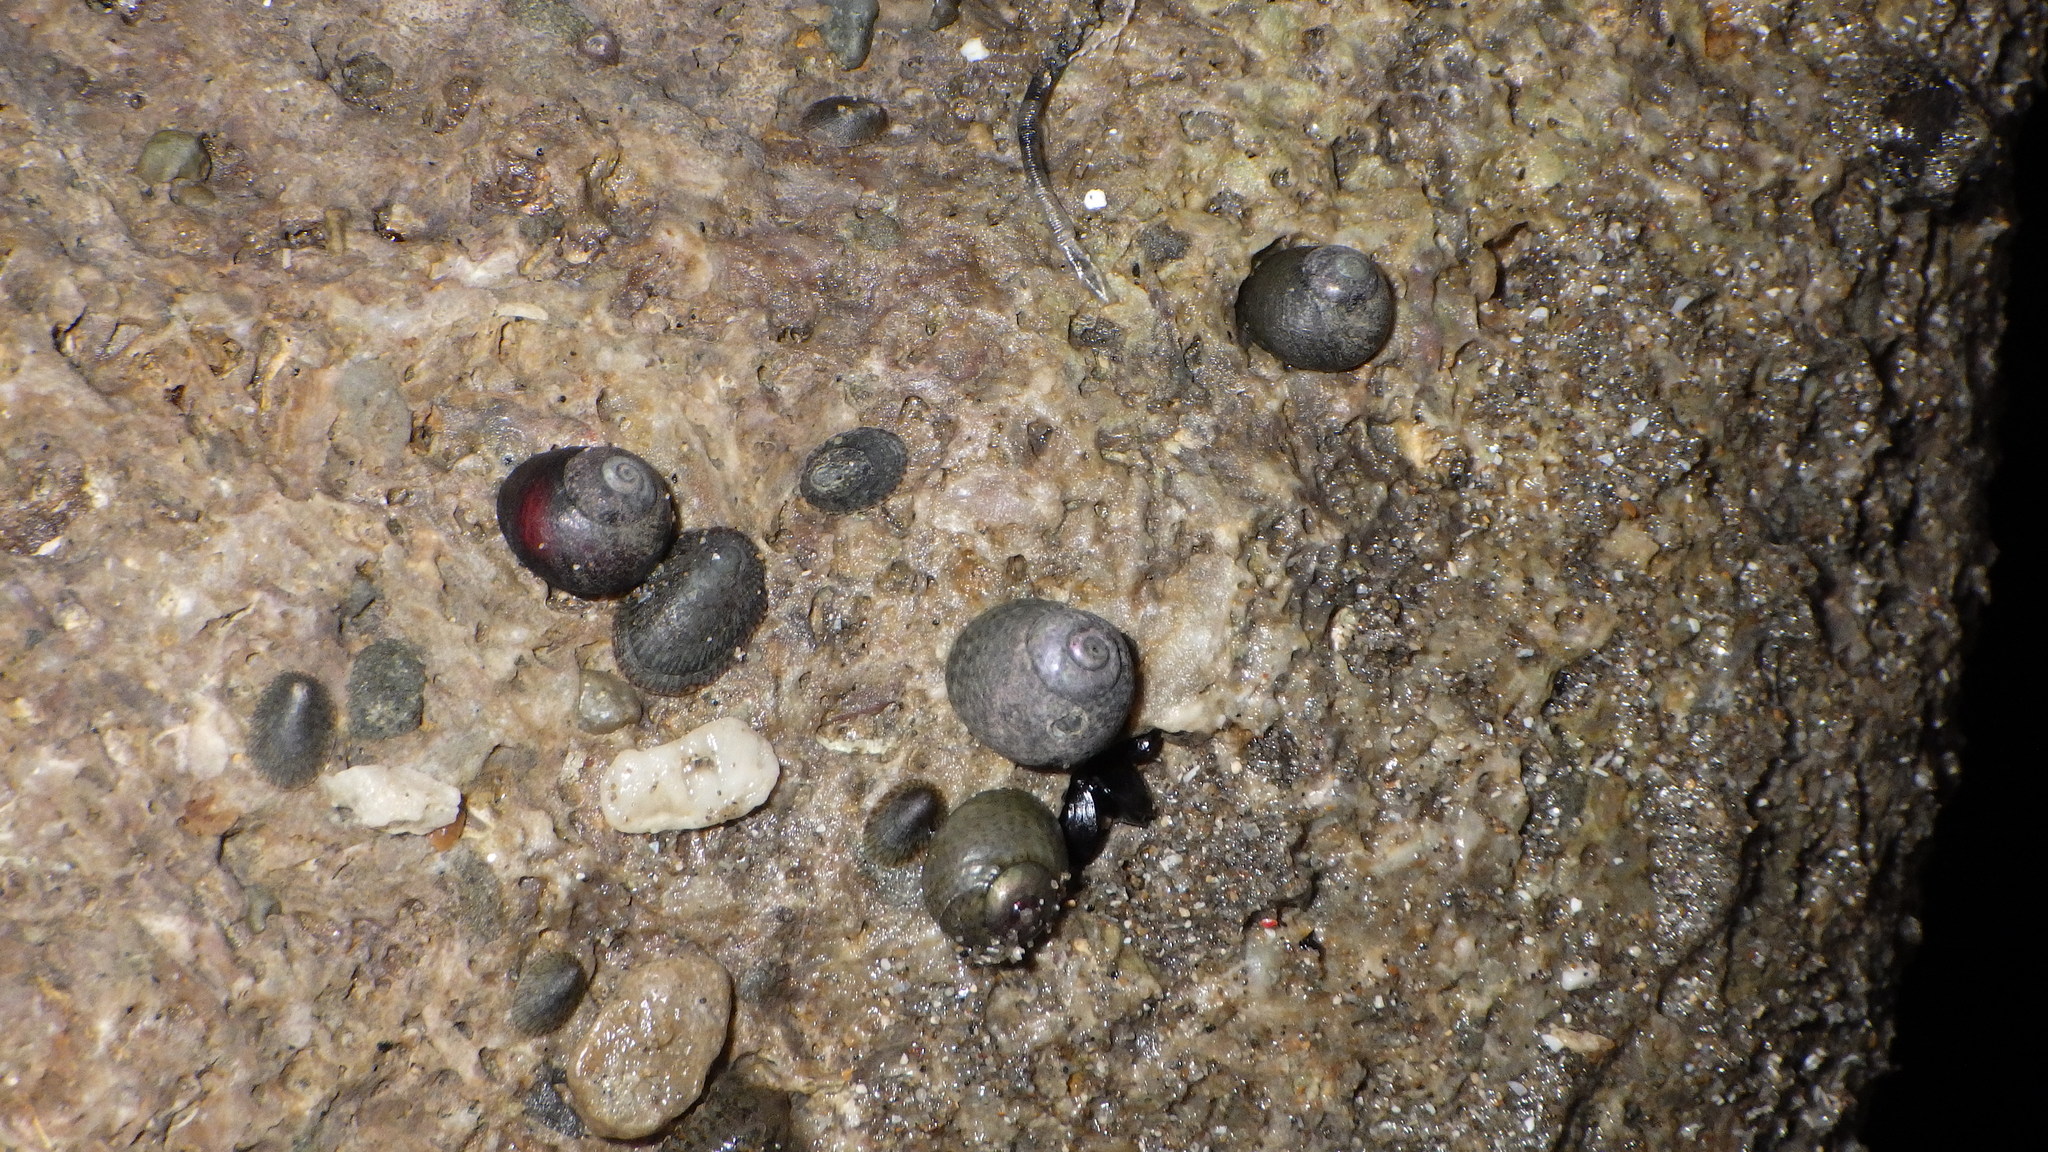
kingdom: Animalia
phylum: Mollusca
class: Gastropoda
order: Trochida
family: Trochidae
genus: Diloma
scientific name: Diloma coracinum
